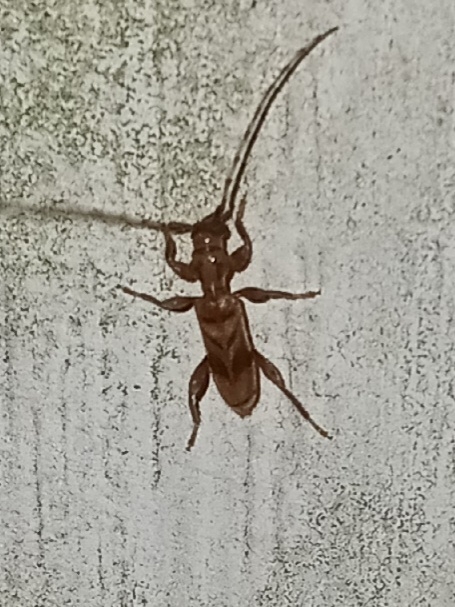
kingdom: Animalia
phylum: Arthropoda
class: Insecta
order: Coleoptera
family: Cerambycidae
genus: Obrium
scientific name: Obrium maculatum
